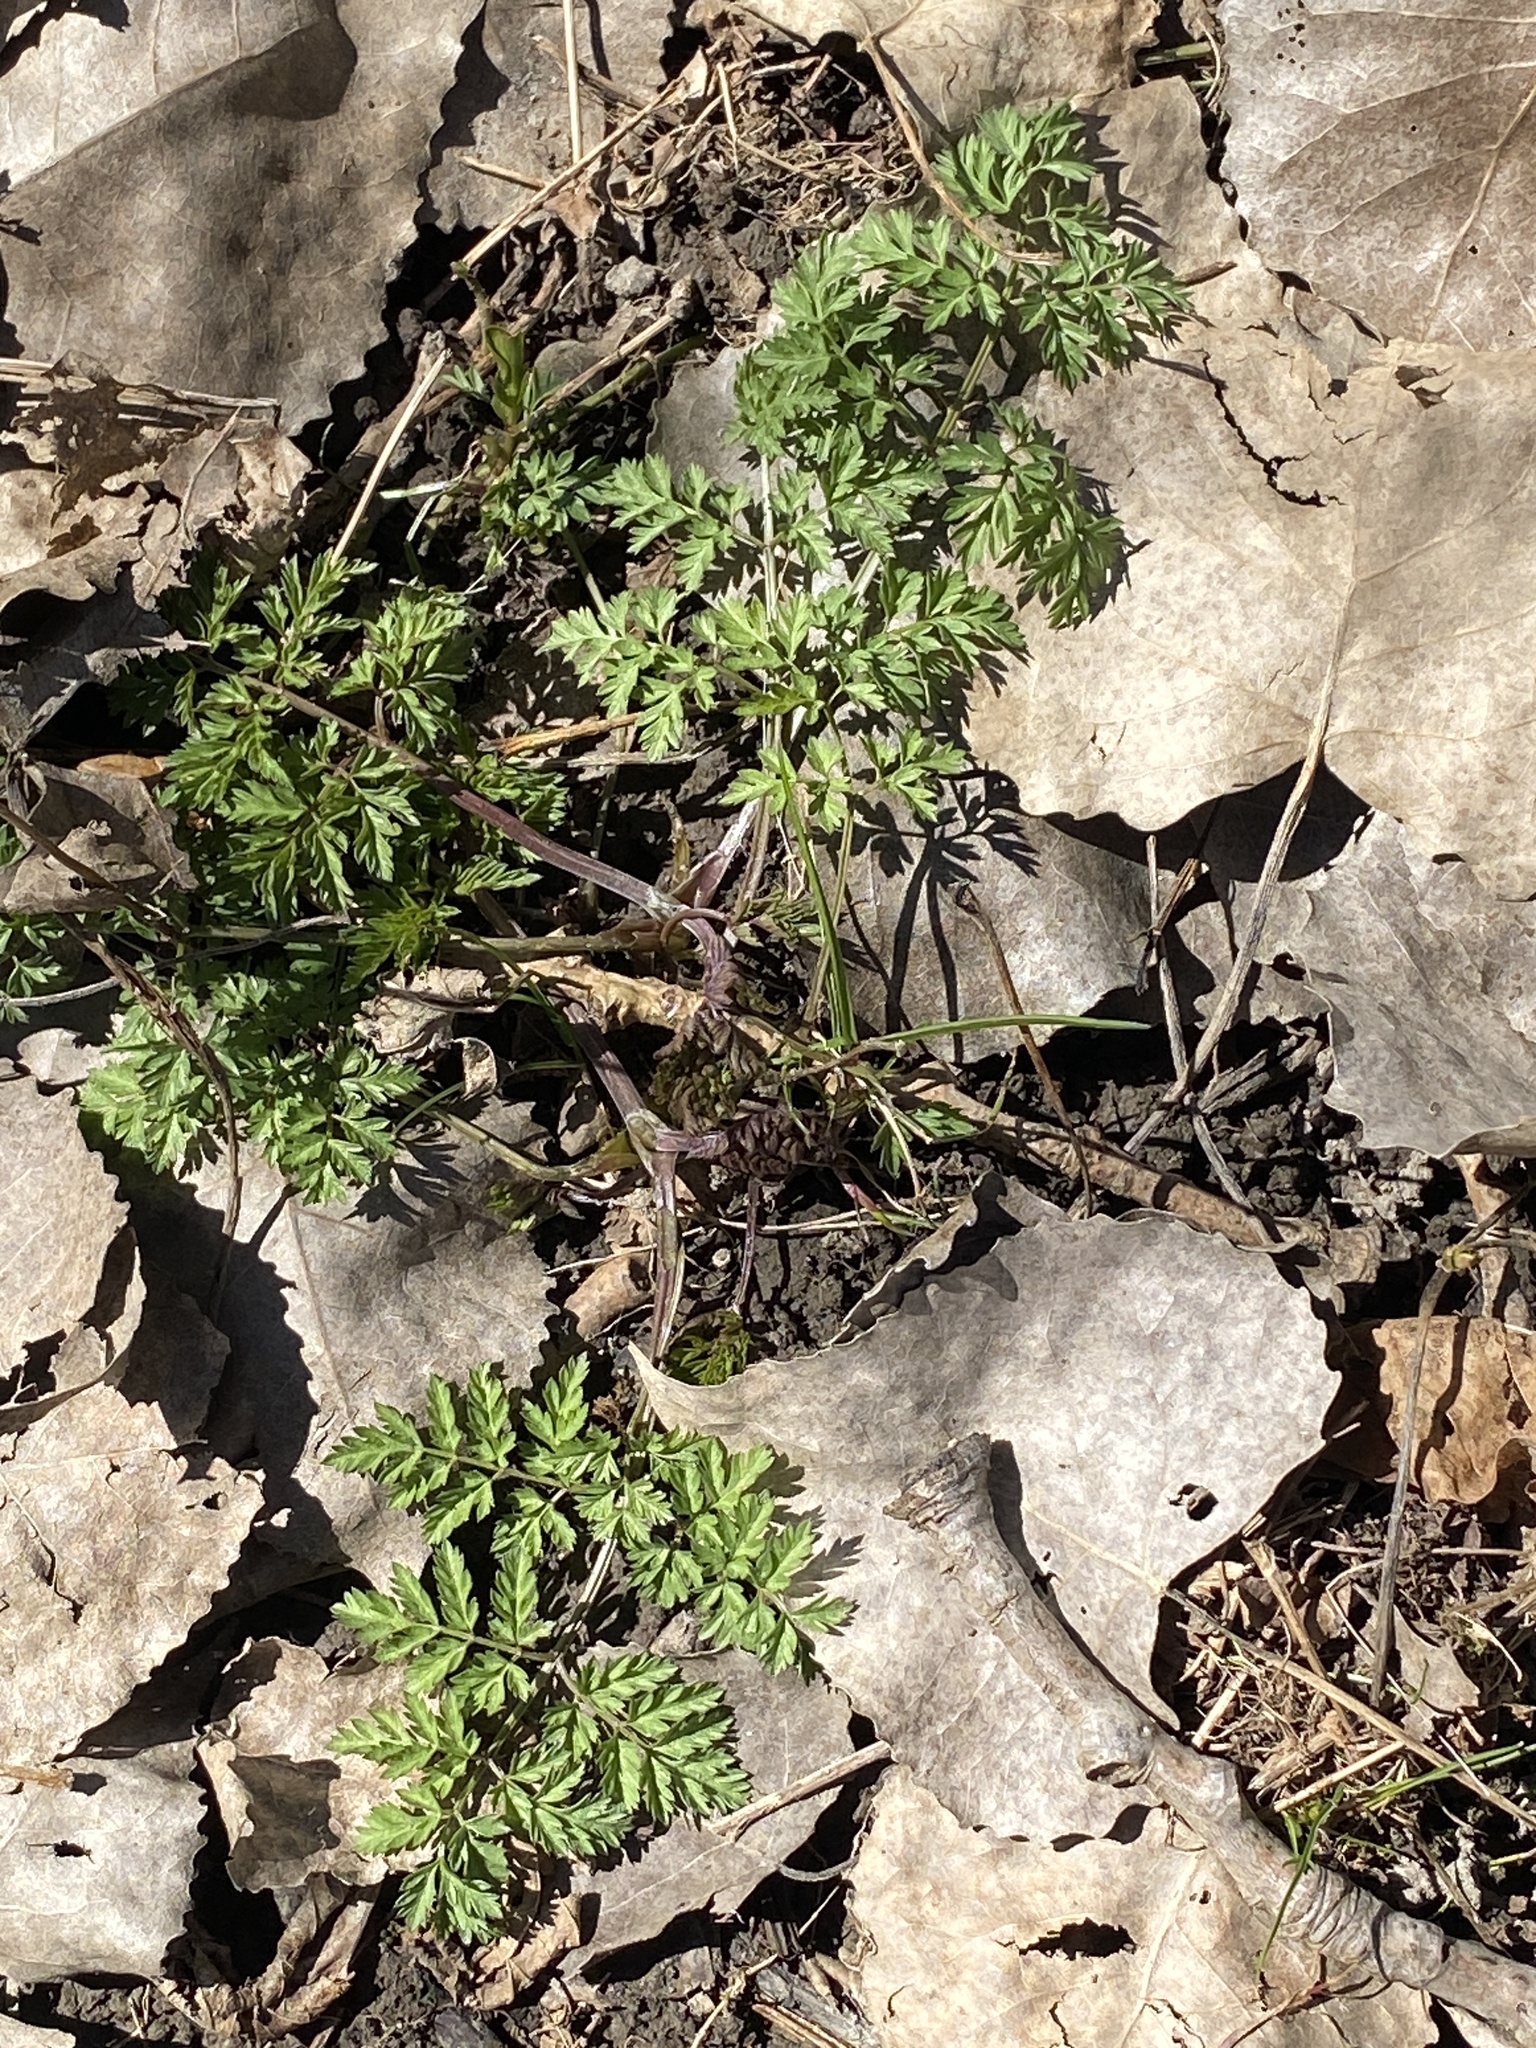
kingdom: Plantae
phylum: Tracheophyta
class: Magnoliopsida
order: Apiales
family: Apiaceae
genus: Anthriscus
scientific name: Anthriscus sylvestris
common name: Cow parsley
